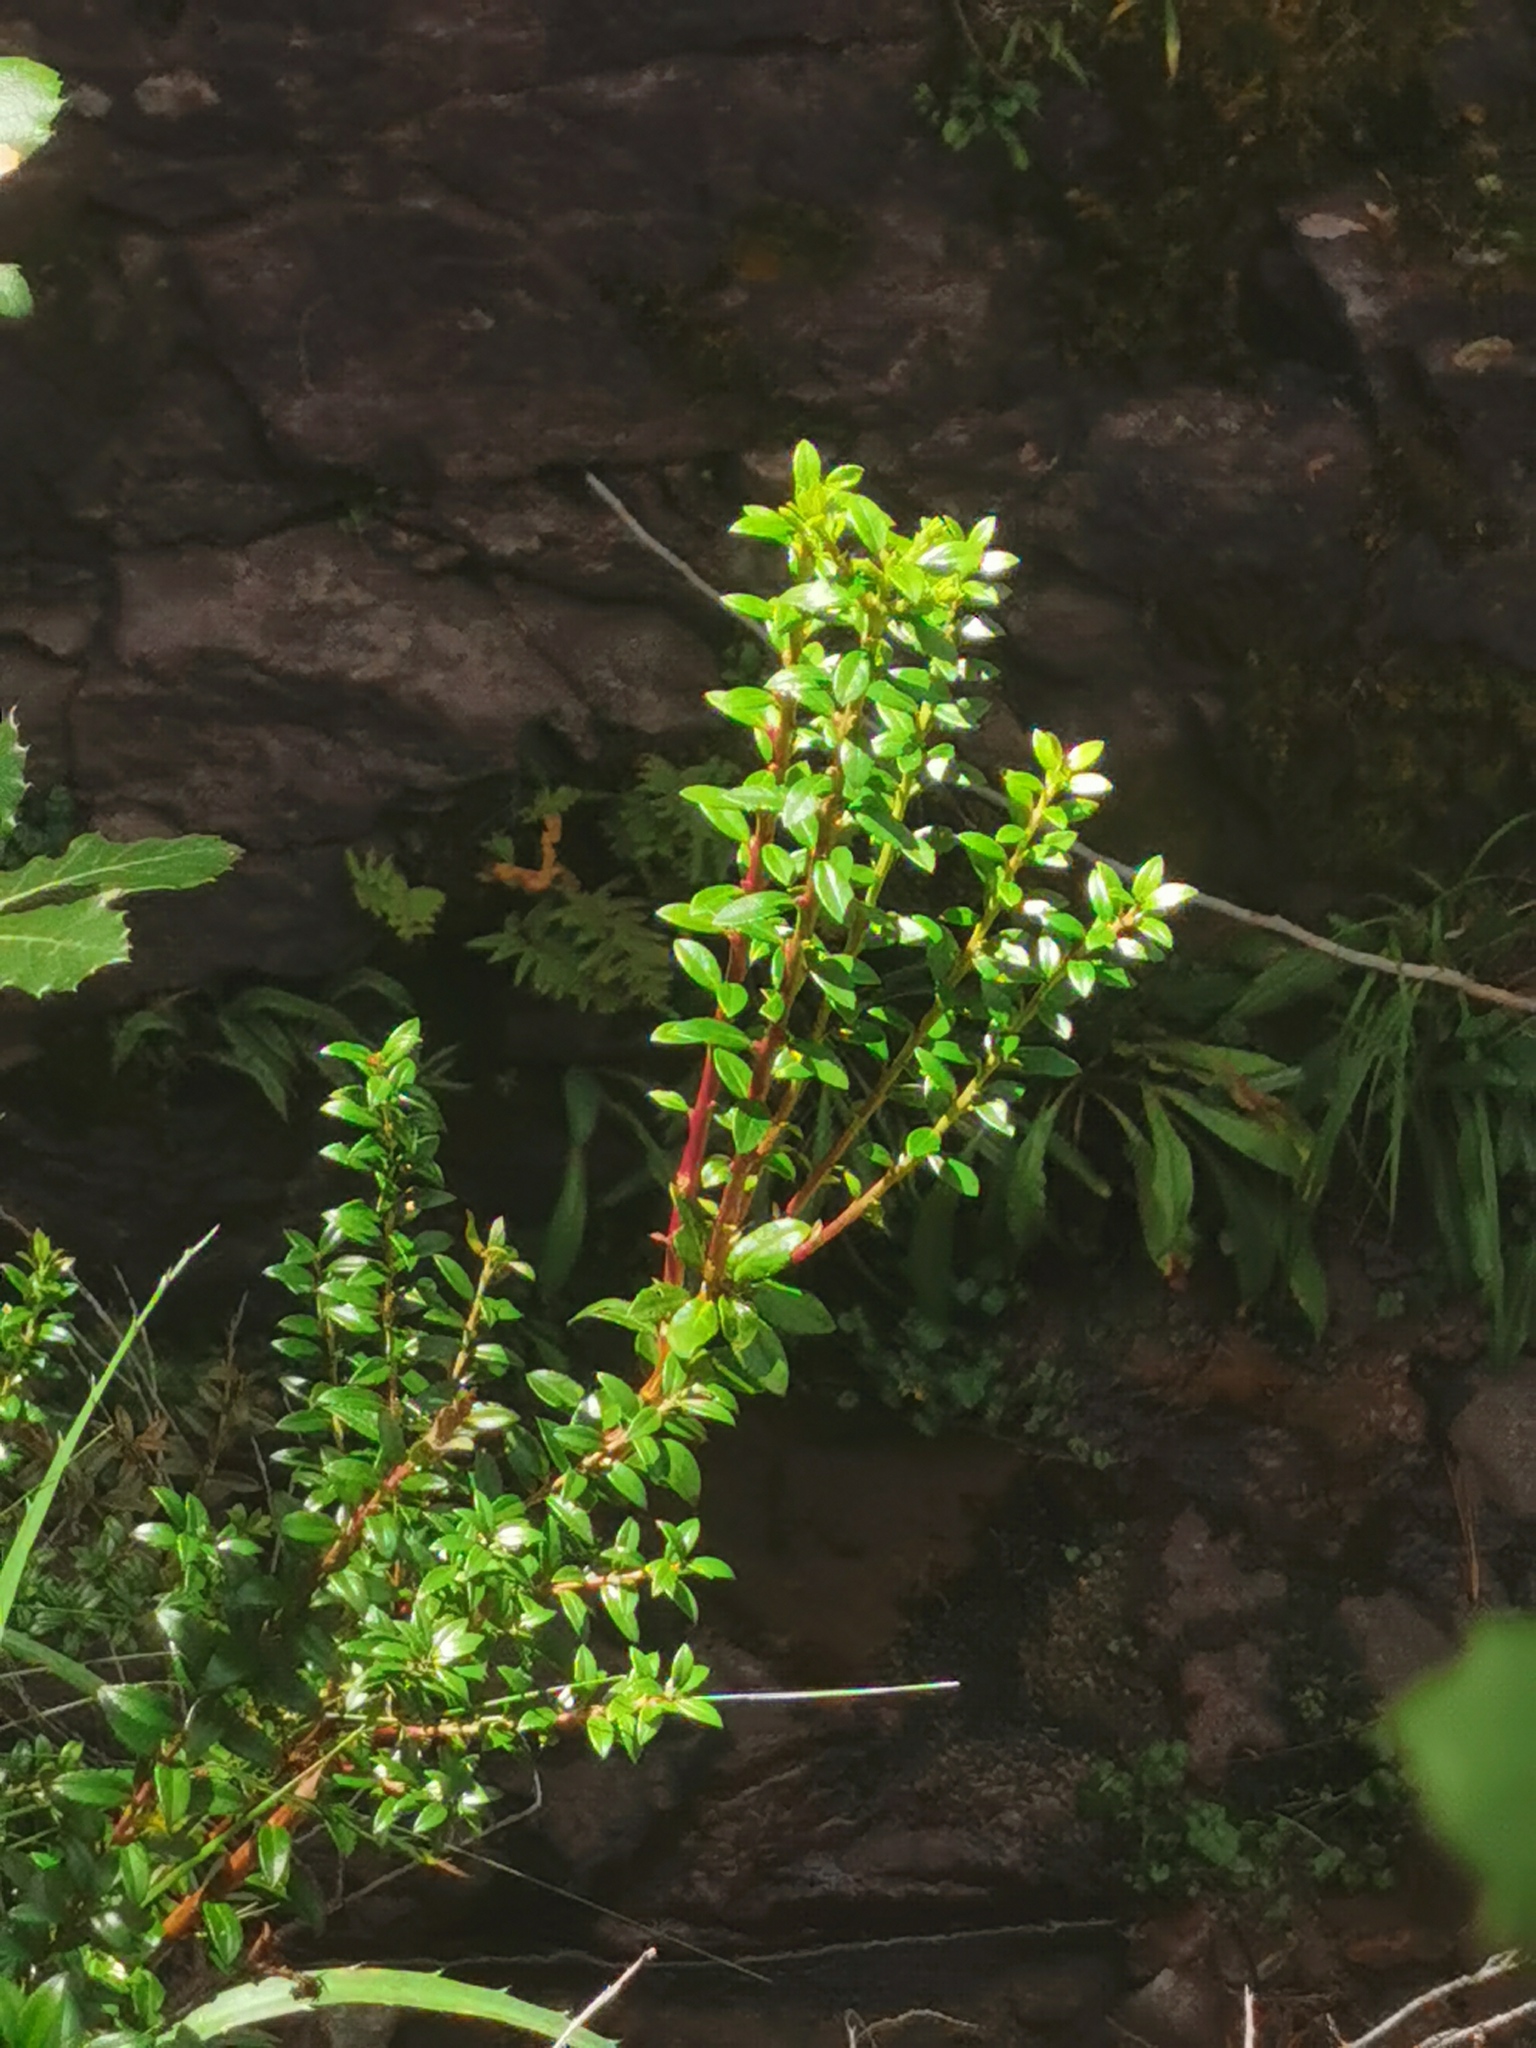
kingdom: Plantae
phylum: Tracheophyta
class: Magnoliopsida
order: Ericales
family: Ericaceae
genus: Gaultheria
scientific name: Gaultheria myrsinoides
